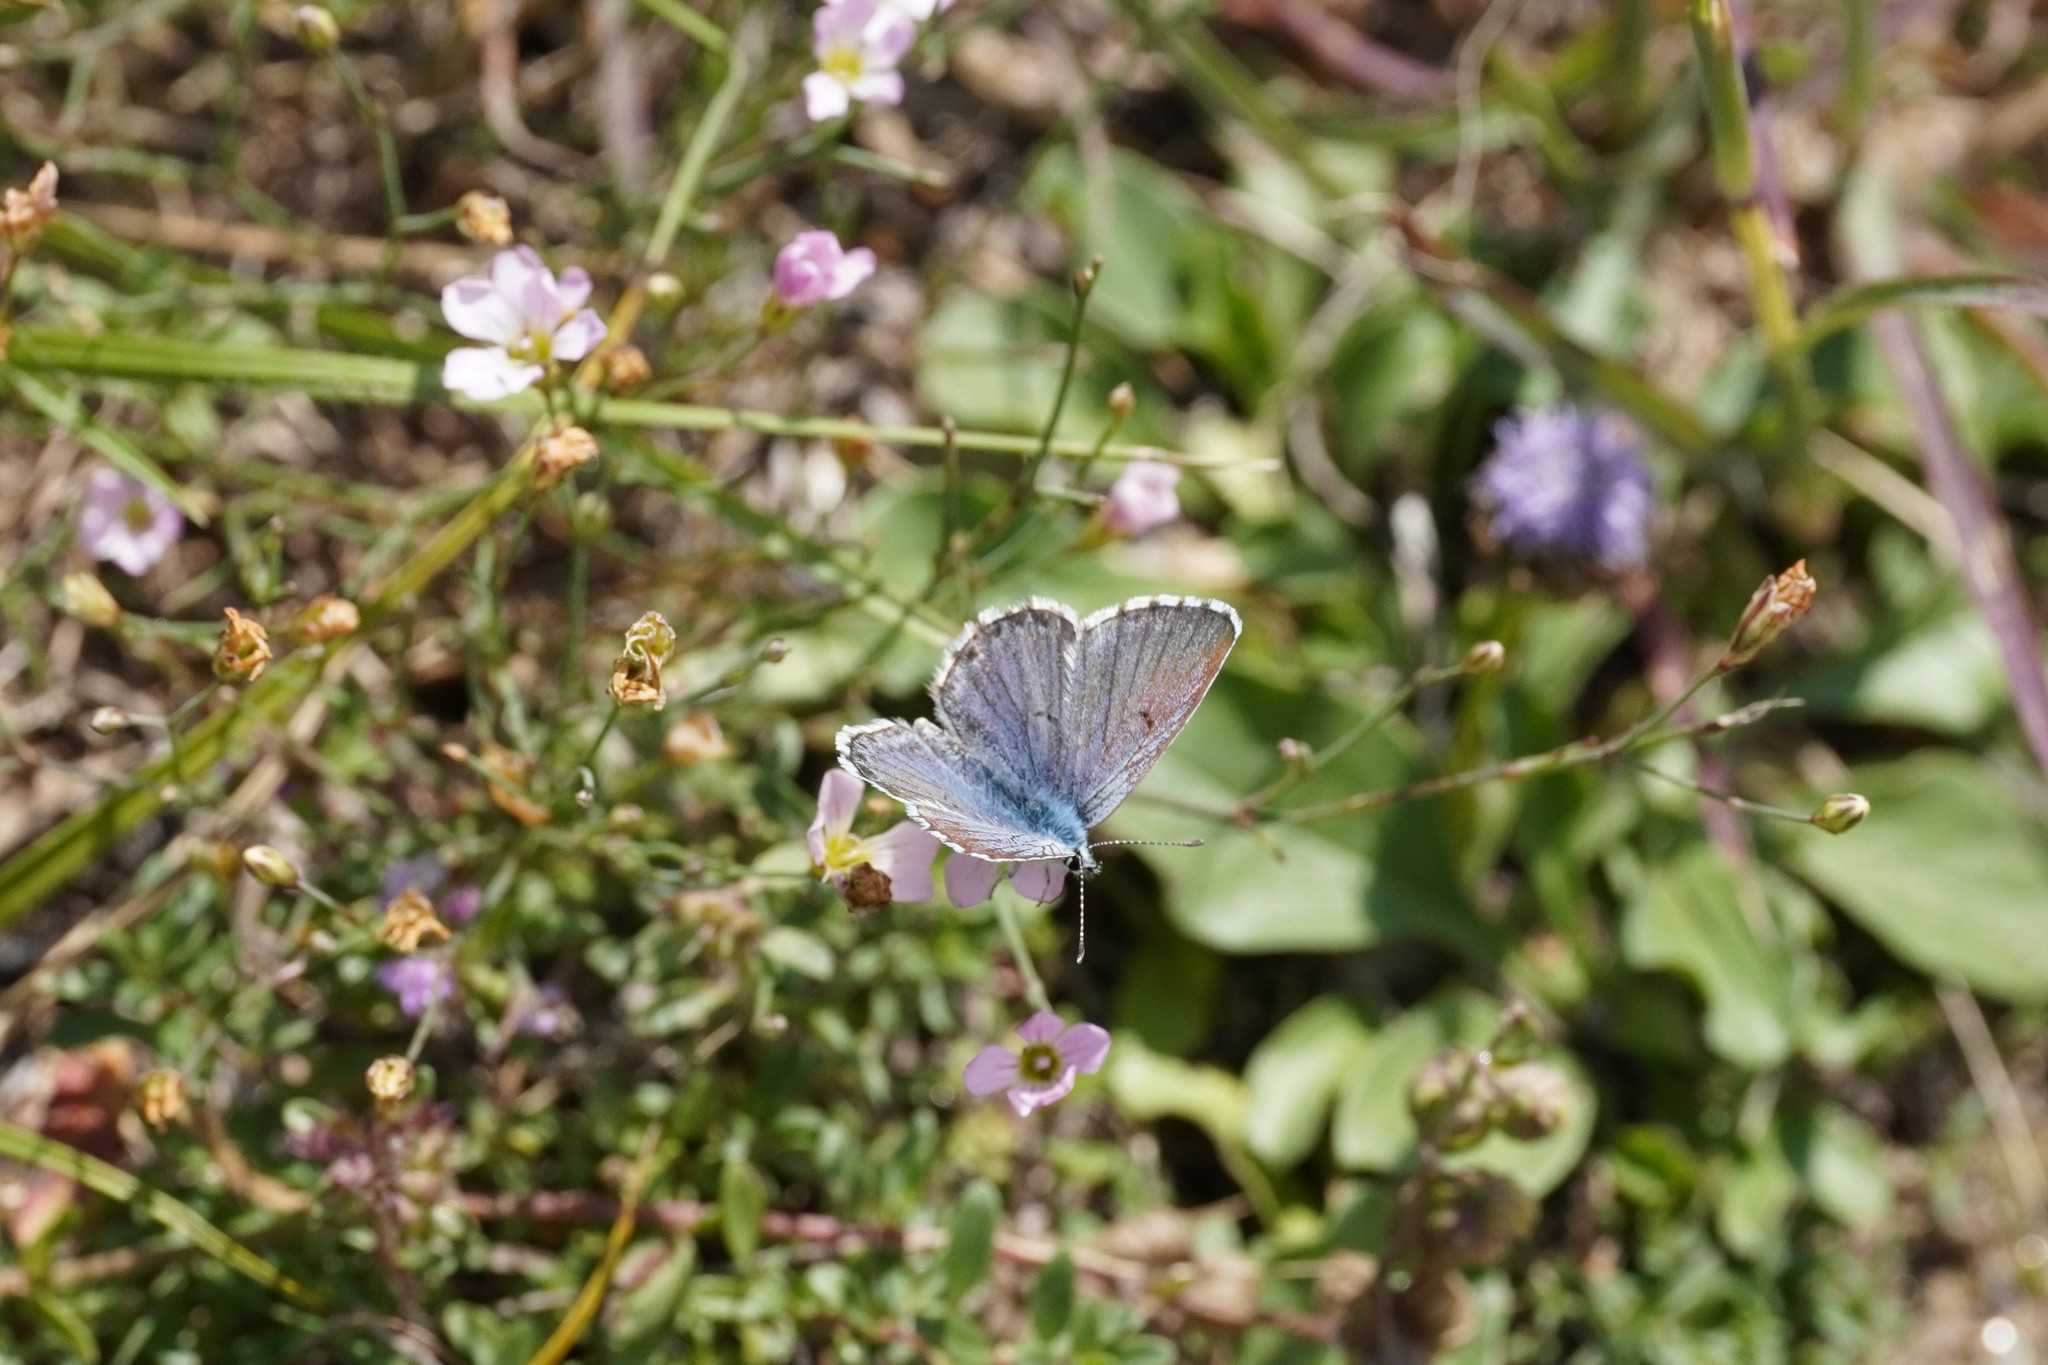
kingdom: Animalia
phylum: Arthropoda
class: Insecta
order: Lepidoptera
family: Lycaenidae
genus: Pseudophilotes
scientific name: Pseudophilotes baton
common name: Baton blue
